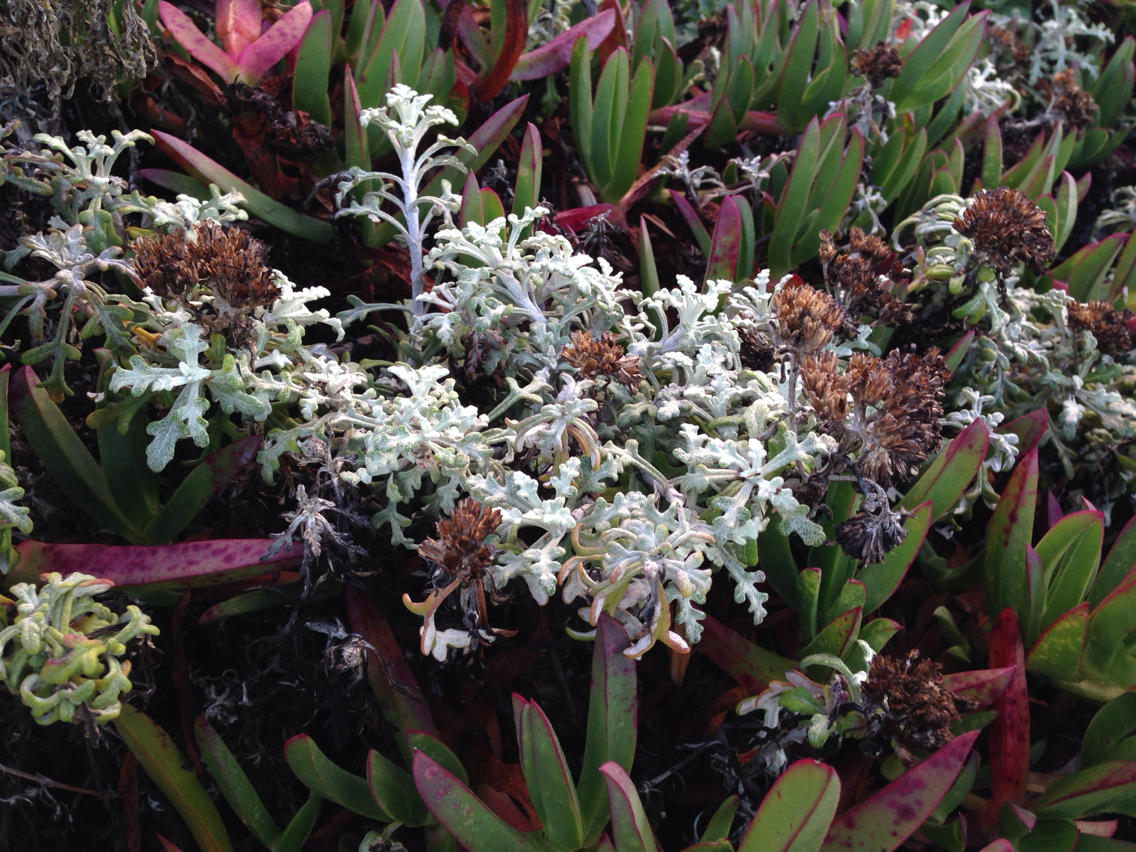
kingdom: Plantae
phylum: Tracheophyta
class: Magnoliopsida
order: Asterales
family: Asteraceae
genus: Eriophyllum
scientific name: Eriophyllum staechadifolium
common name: Lizardtail
